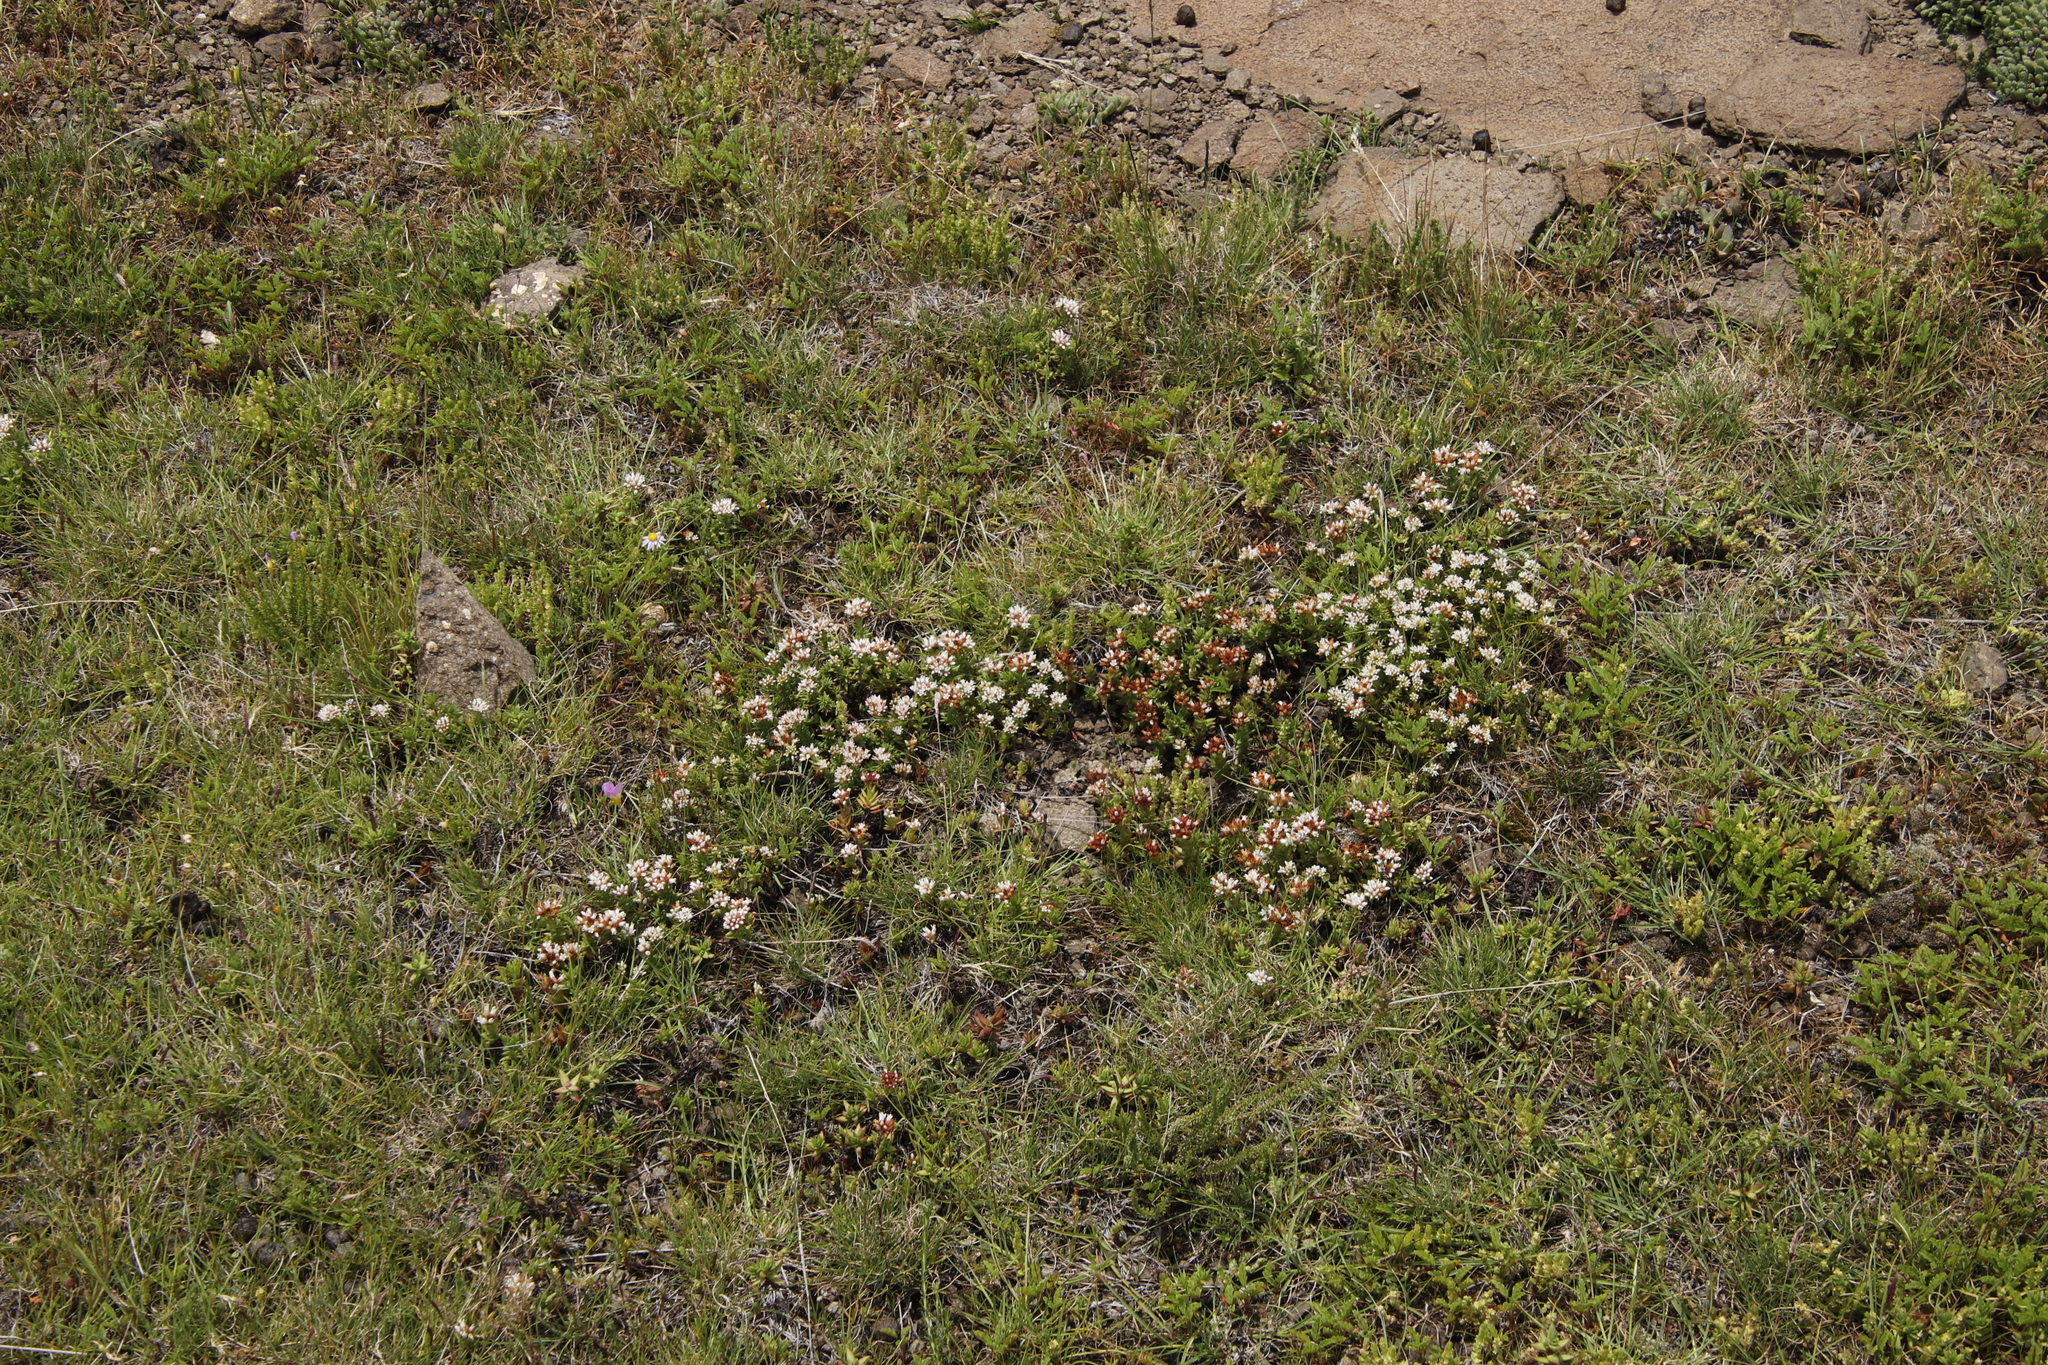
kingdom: Plantae
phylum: Tracheophyta
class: Magnoliopsida
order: Saxifragales
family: Crassulaceae
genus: Crassula
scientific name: Crassula dependens
